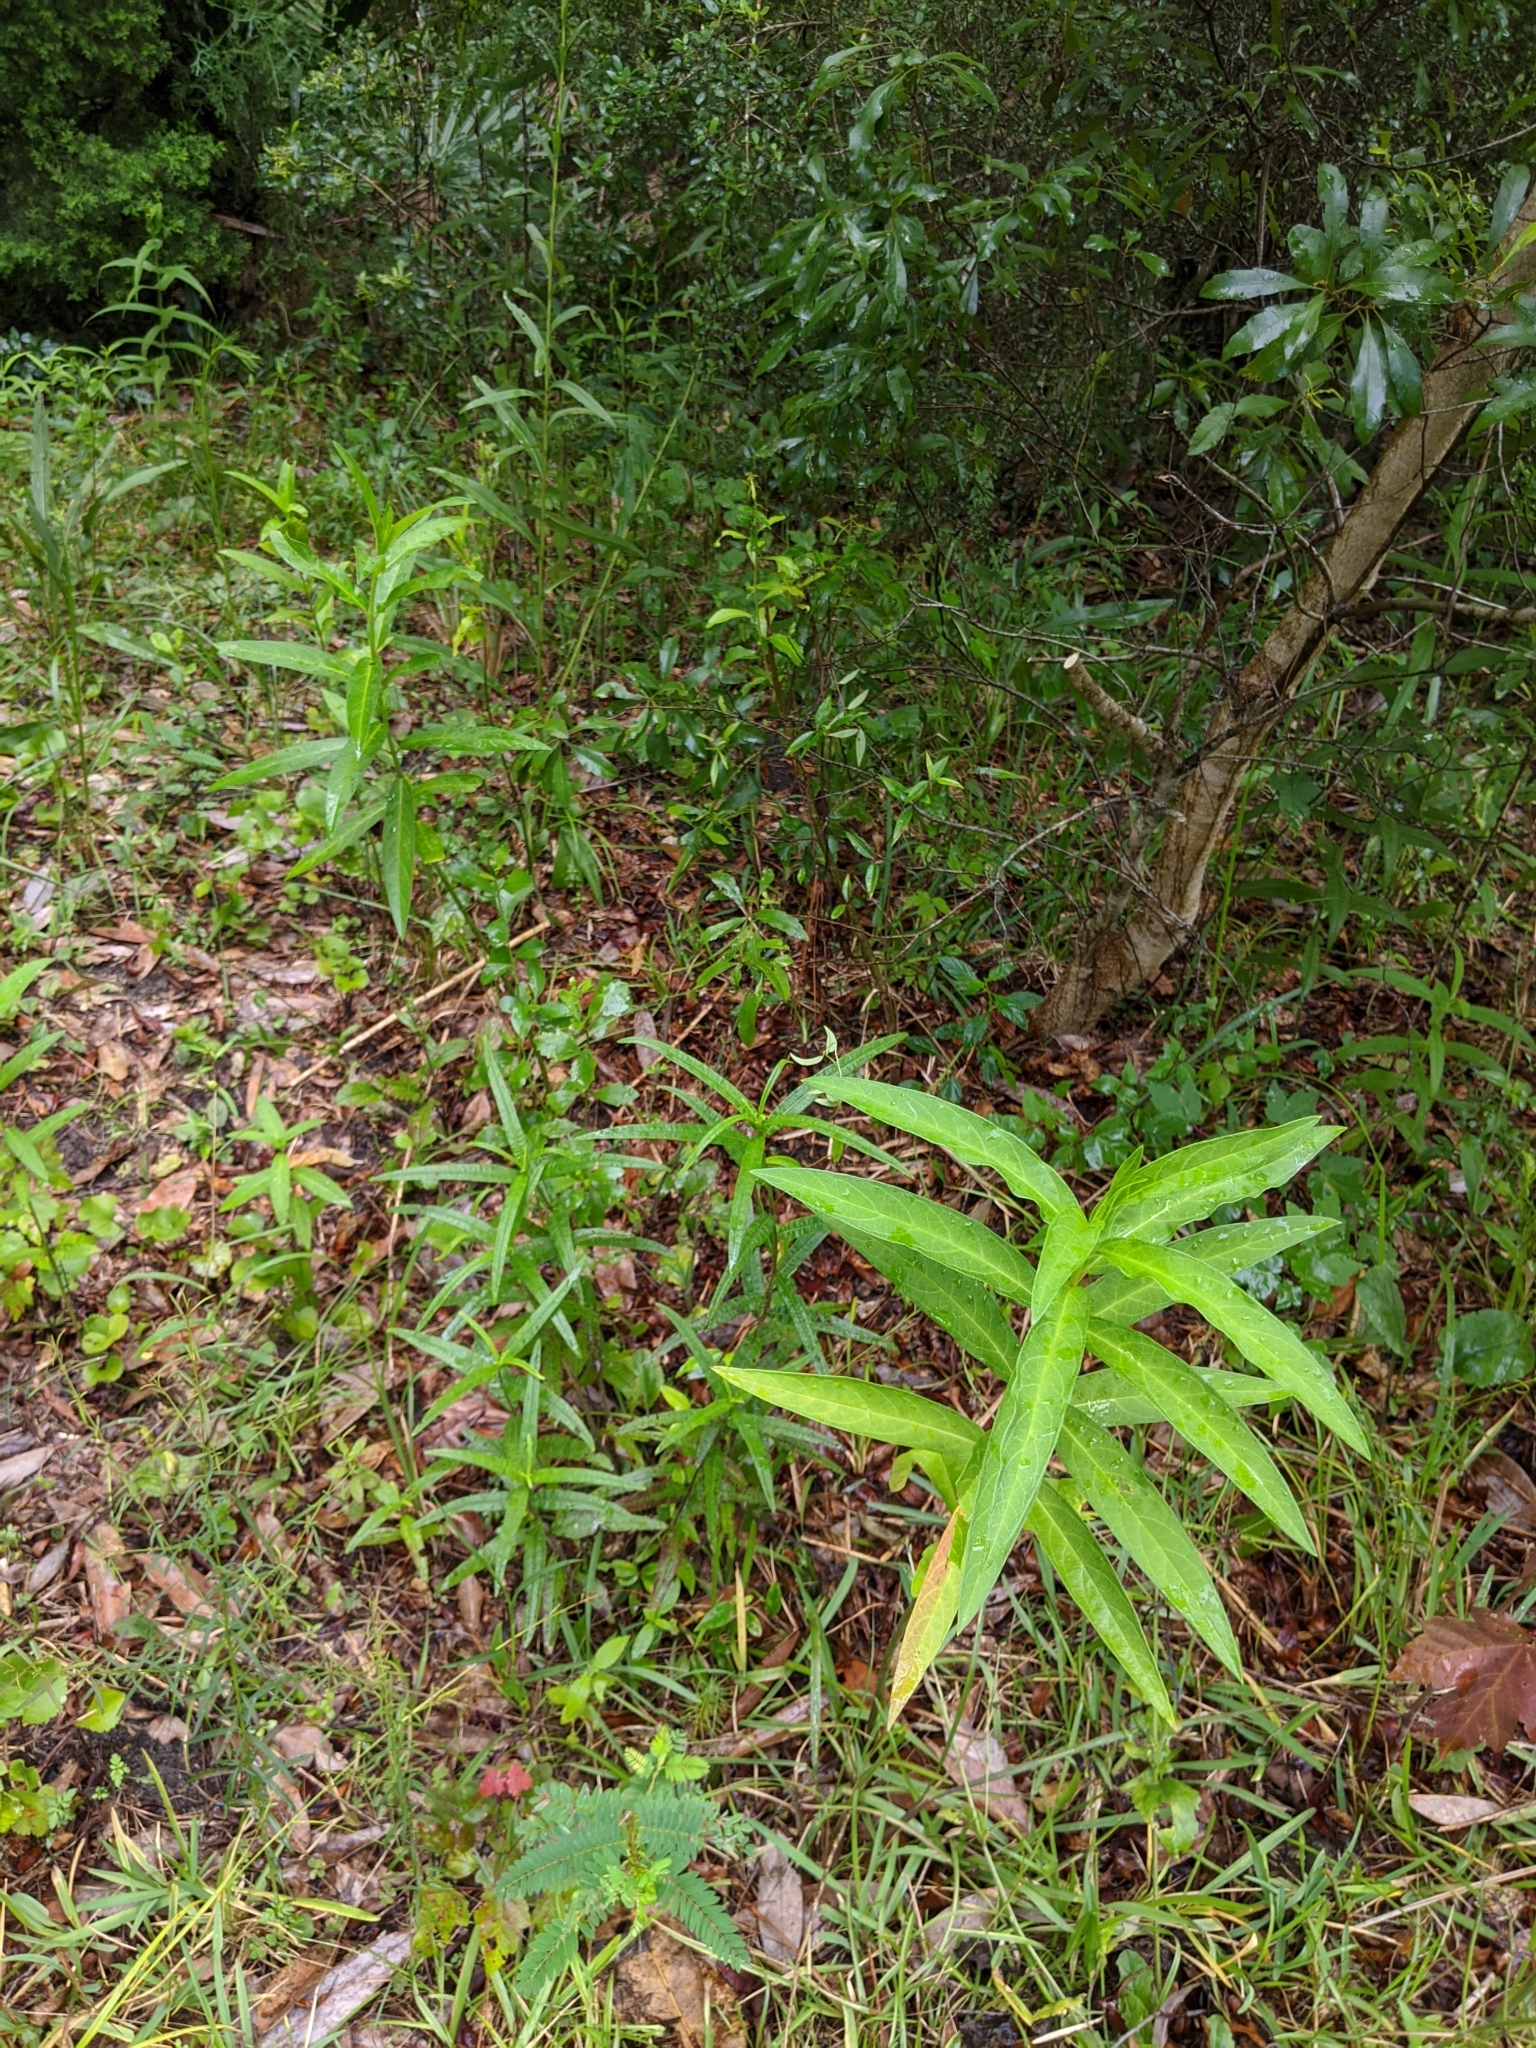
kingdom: Plantae
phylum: Tracheophyta
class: Magnoliopsida
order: Gentianales
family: Apocynaceae
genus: Asclepias
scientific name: Asclepias incarnata
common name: Swamp milkweed
